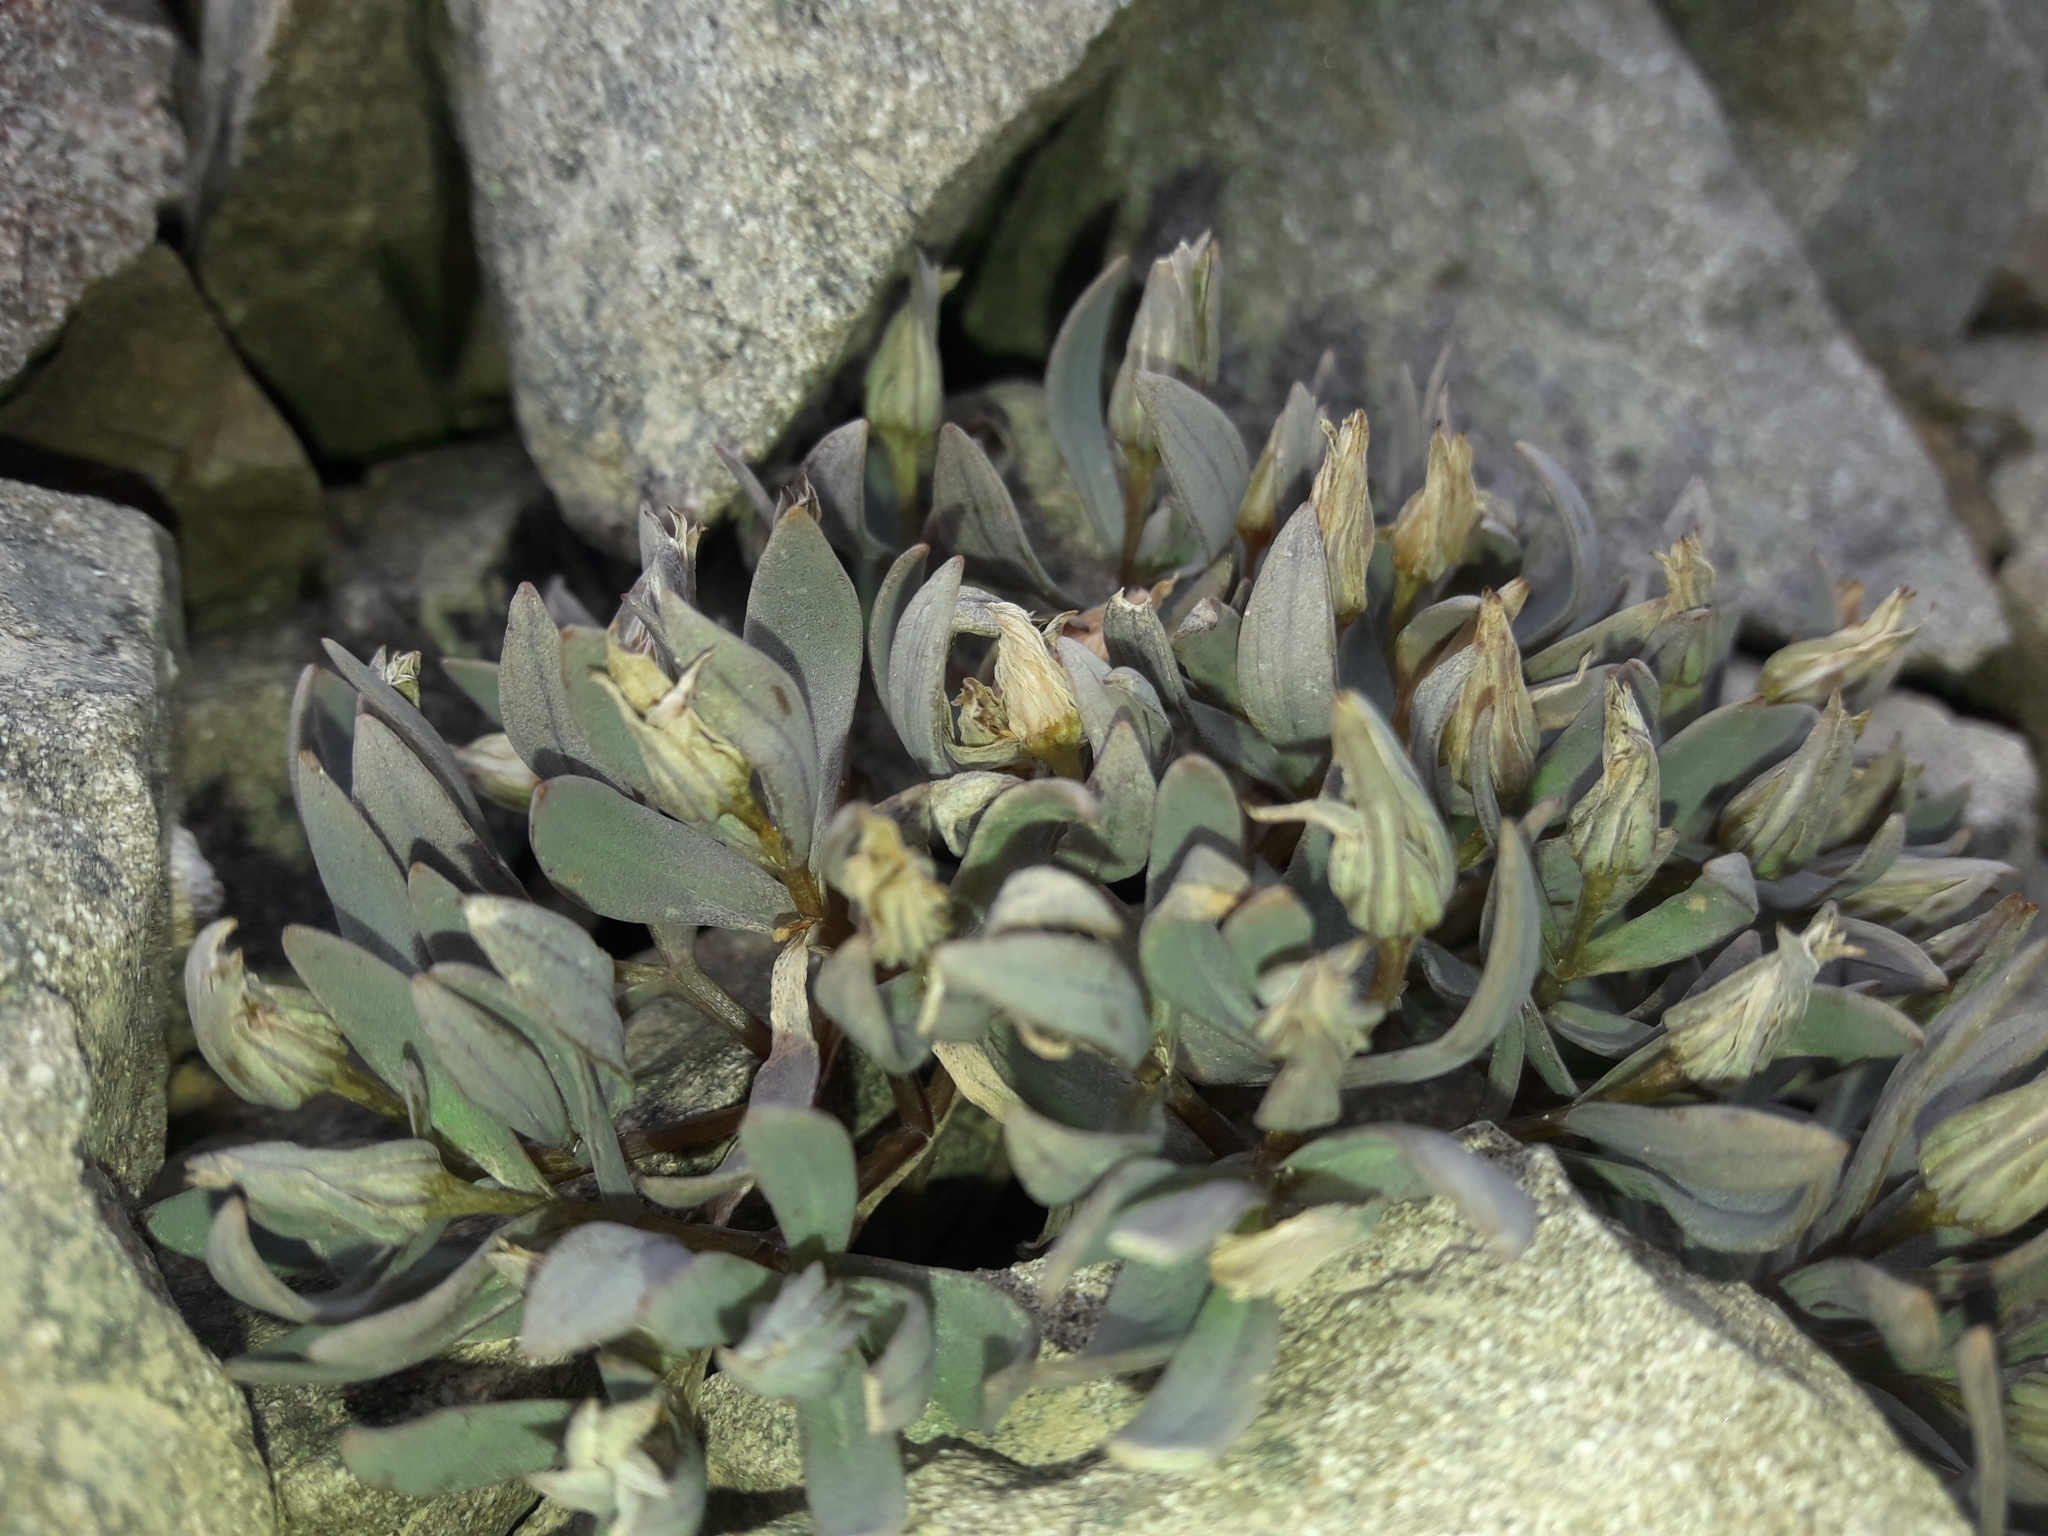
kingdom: Plantae
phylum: Tracheophyta
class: Magnoliopsida
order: Caryophyllales
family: Caryophyllaceae
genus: Stellaria
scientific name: Stellaria roughii
